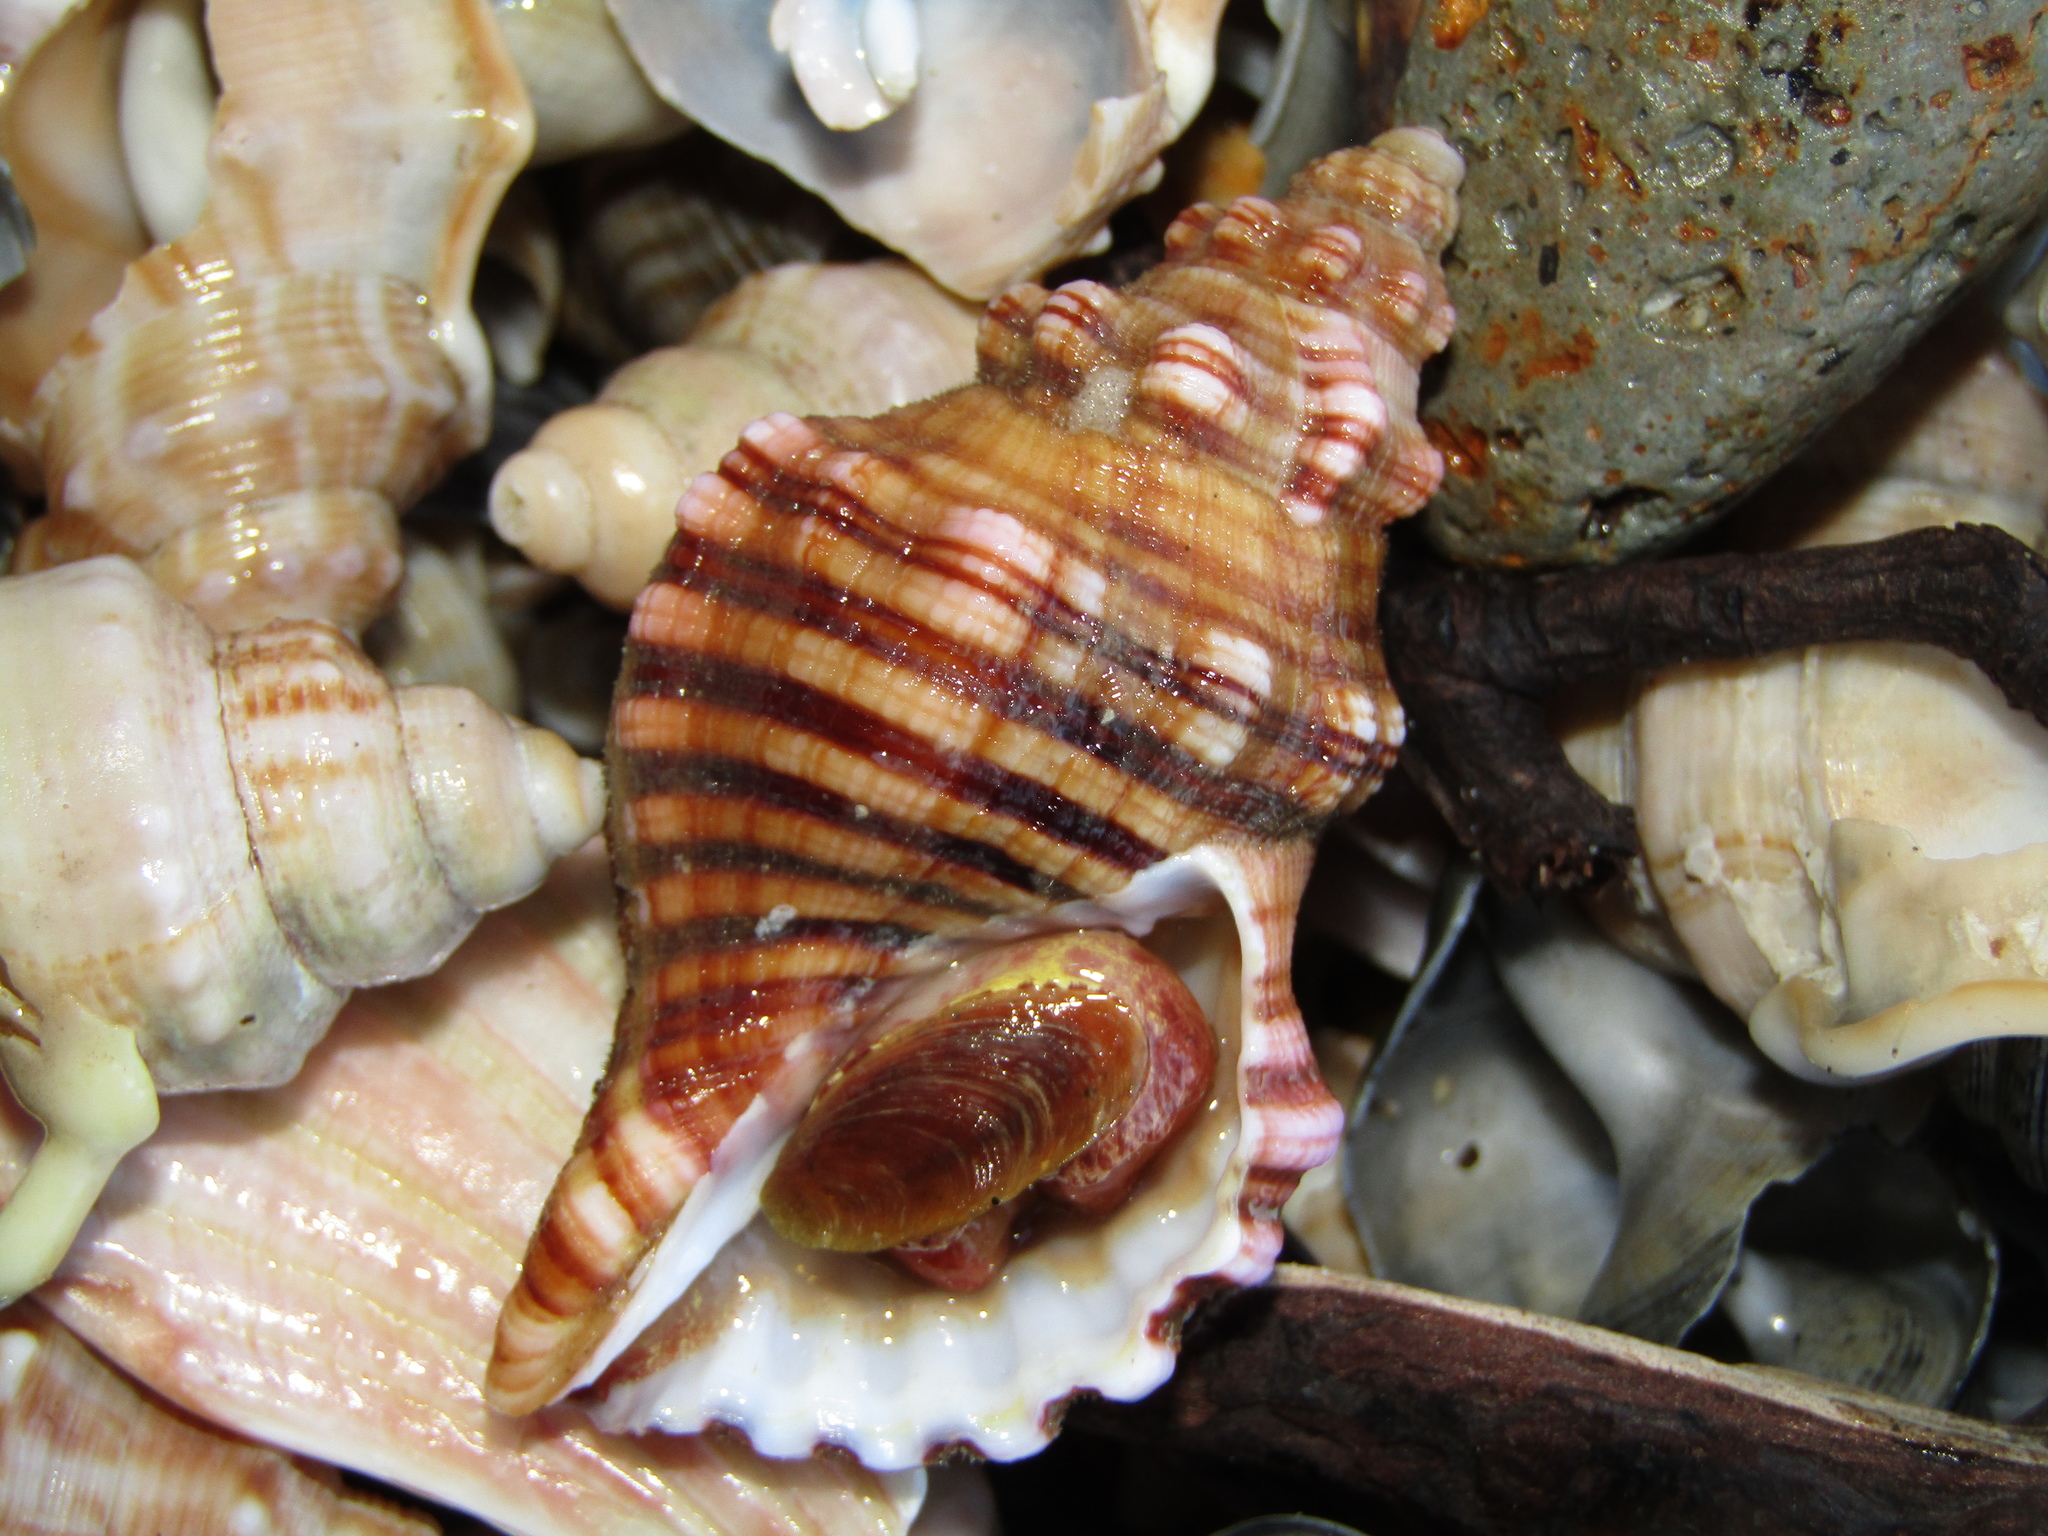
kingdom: Animalia
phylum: Mollusca
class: Gastropoda
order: Littorinimorpha
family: Cymatiidae
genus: Cabestana
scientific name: Cabestana spengleri
